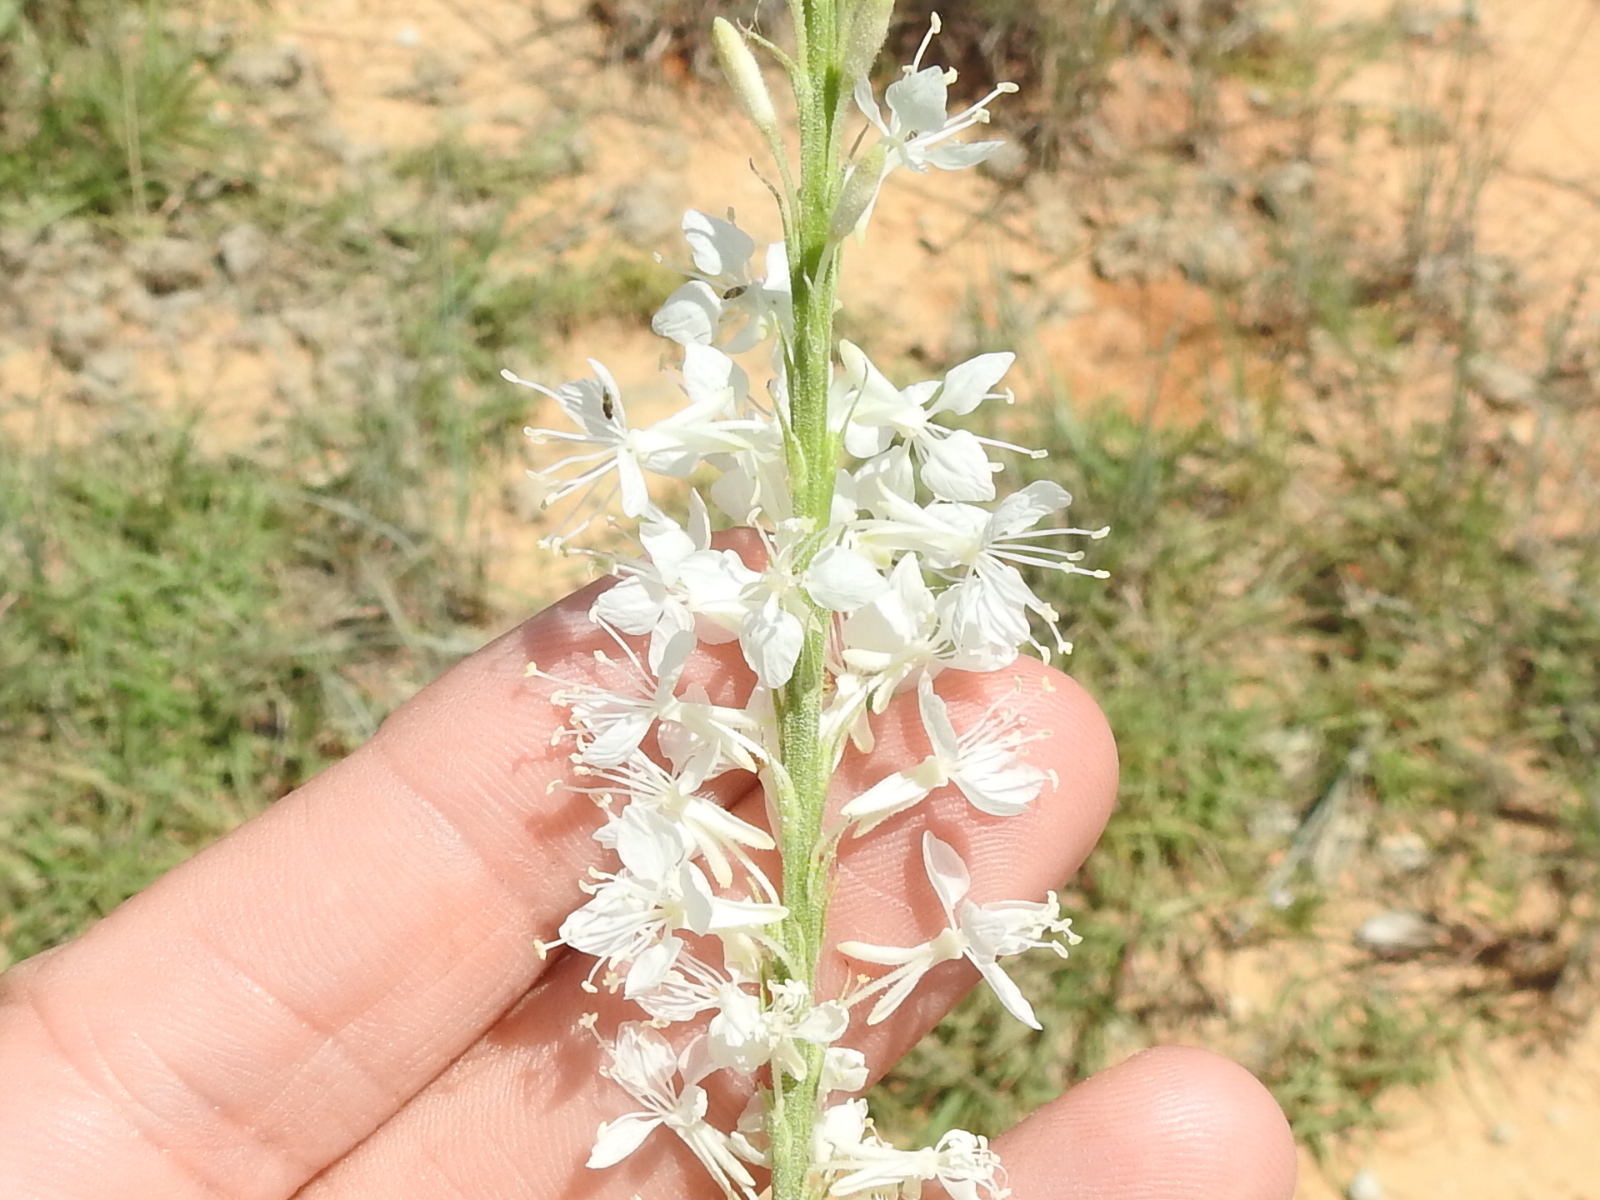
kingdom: Plantae
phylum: Tracheophyta
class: Magnoliopsida
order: Myrtales
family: Onagraceae
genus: Oenothera
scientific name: Oenothera glaucifolia
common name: False gaura
